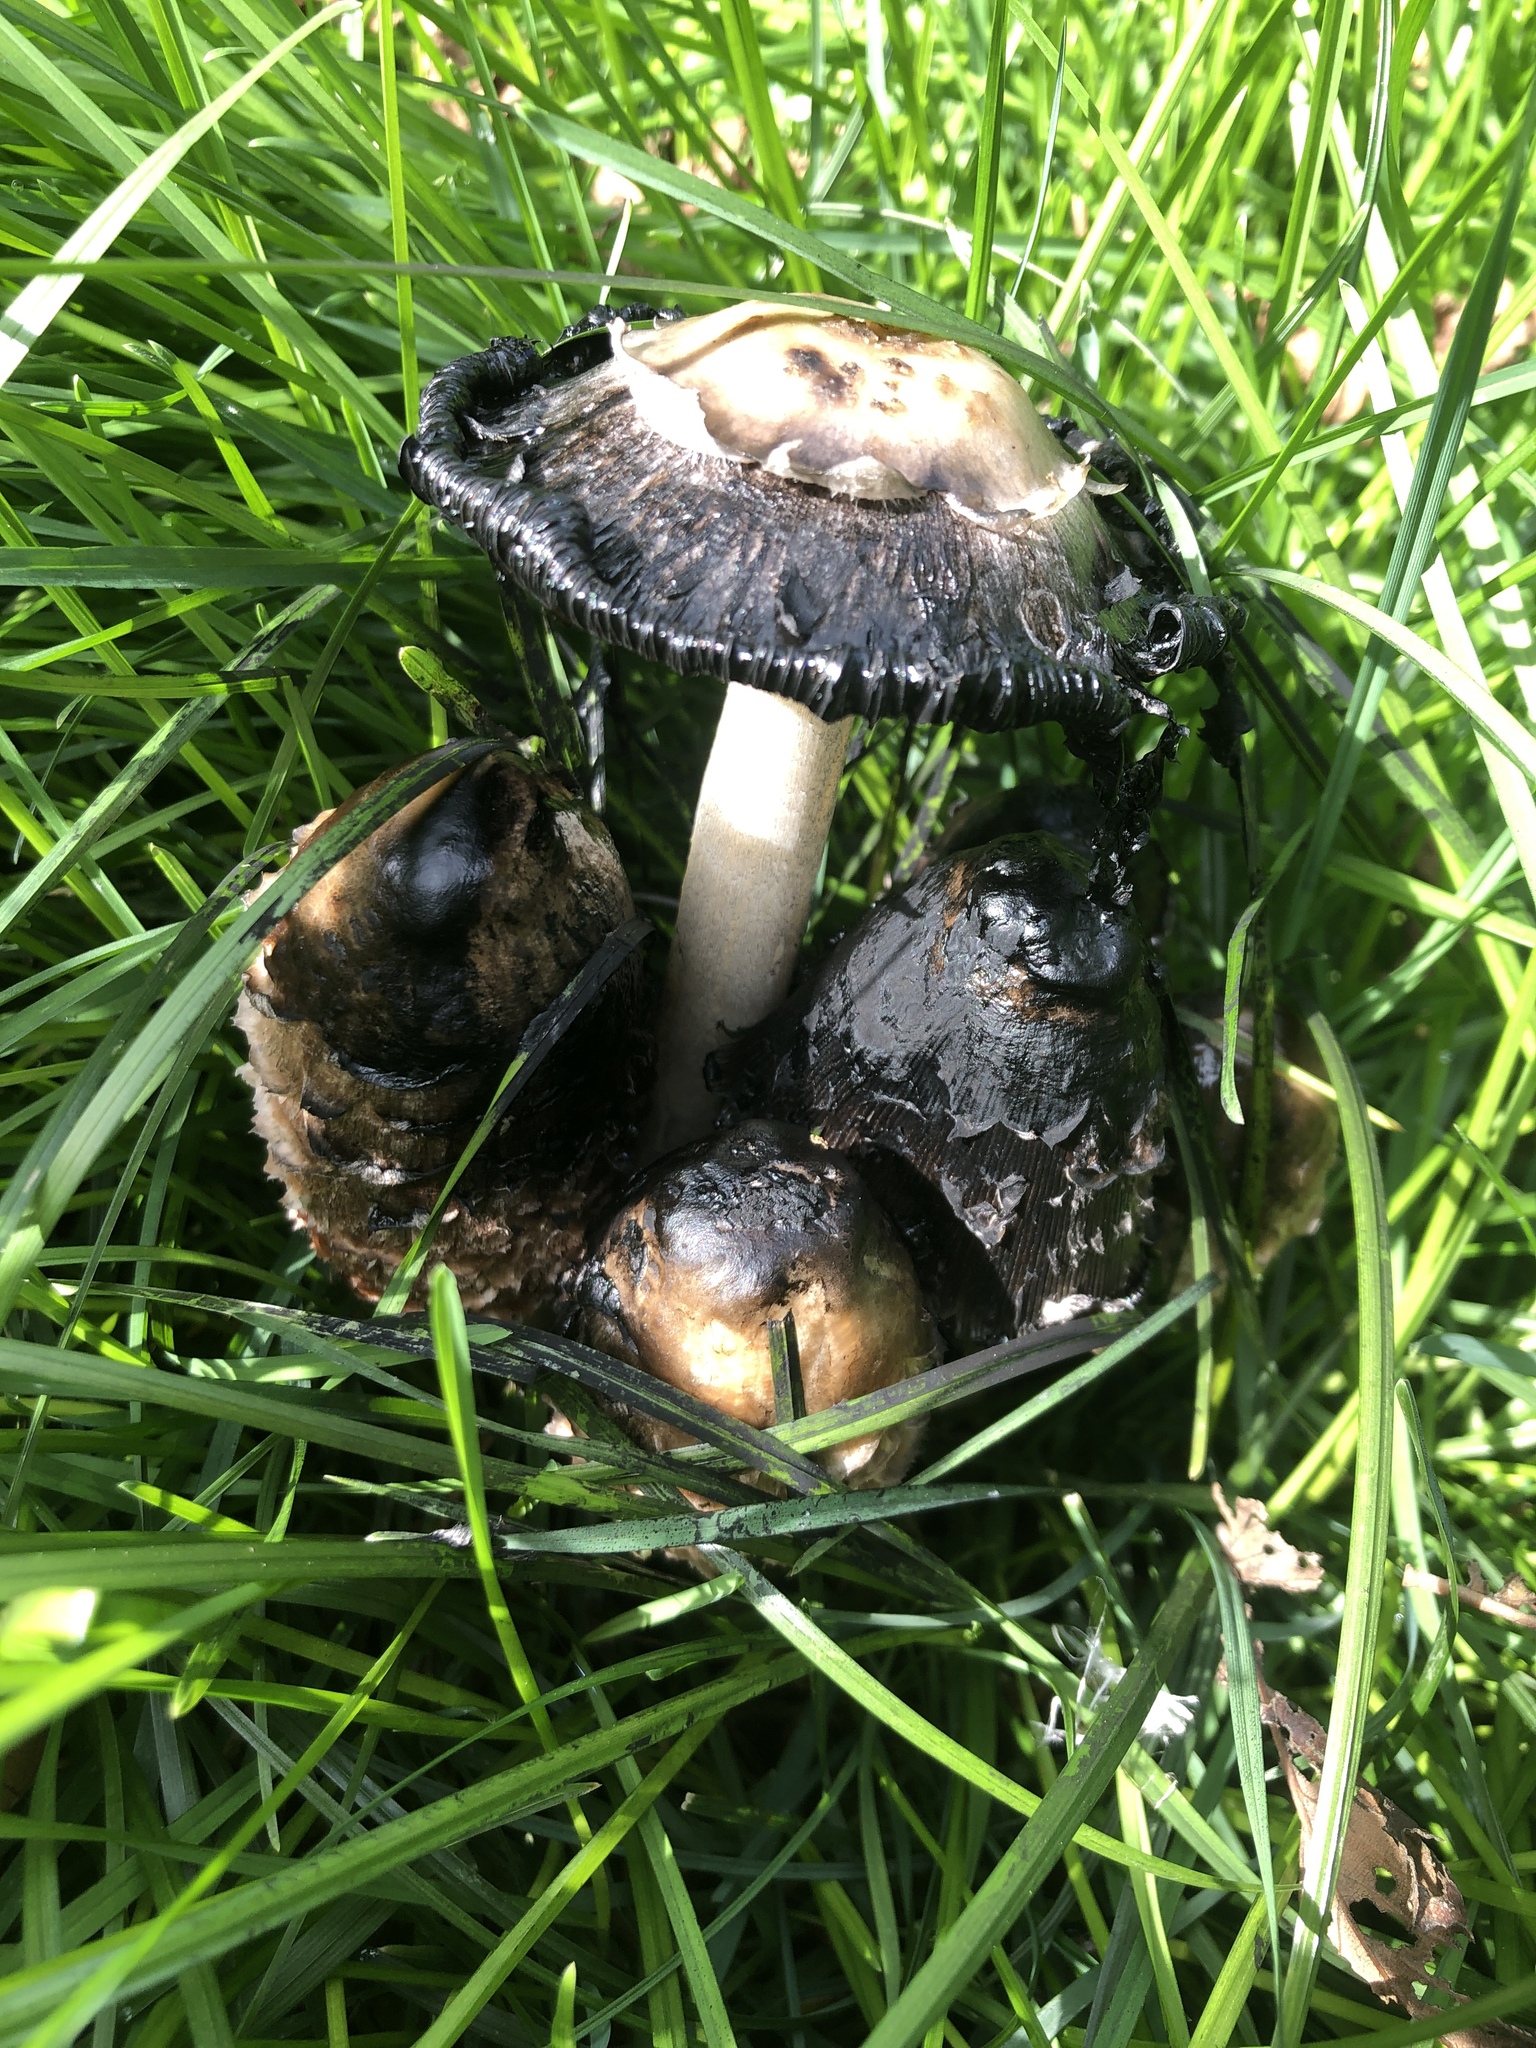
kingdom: Fungi
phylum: Basidiomycota
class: Agaricomycetes
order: Agaricales
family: Agaricaceae
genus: Coprinus
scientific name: Coprinus comatus
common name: Lawyer's wig
